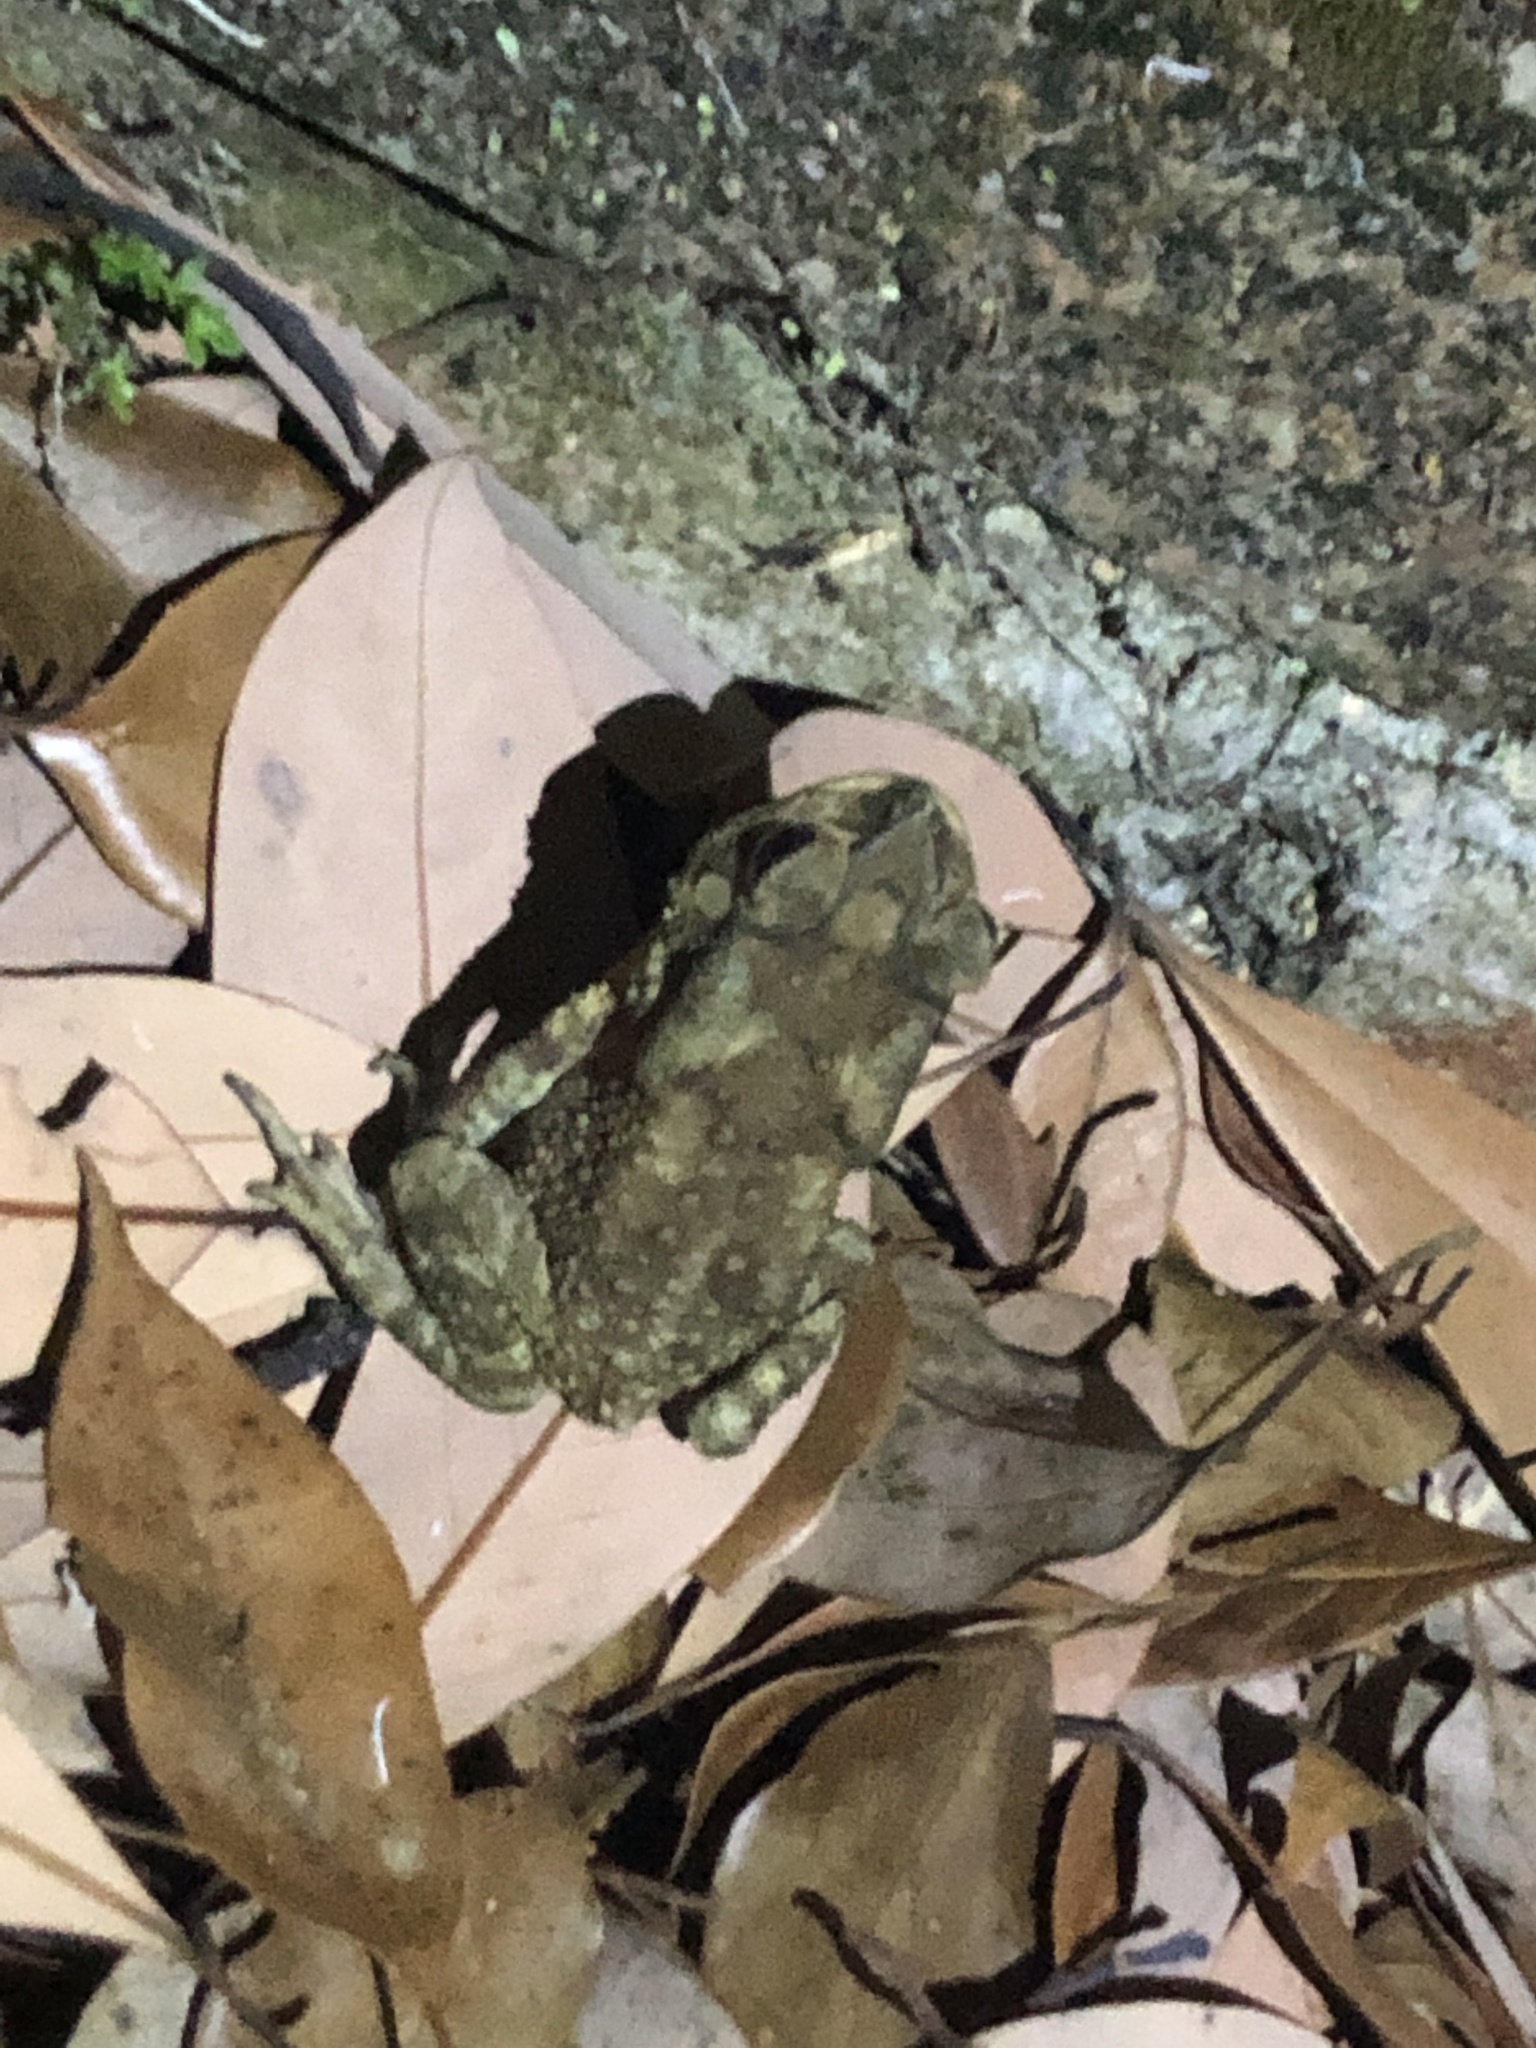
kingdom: Animalia
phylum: Chordata
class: Amphibia
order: Anura
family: Bufonidae
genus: Duttaphrynus
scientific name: Duttaphrynus melanostictus
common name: Common sunda toad
